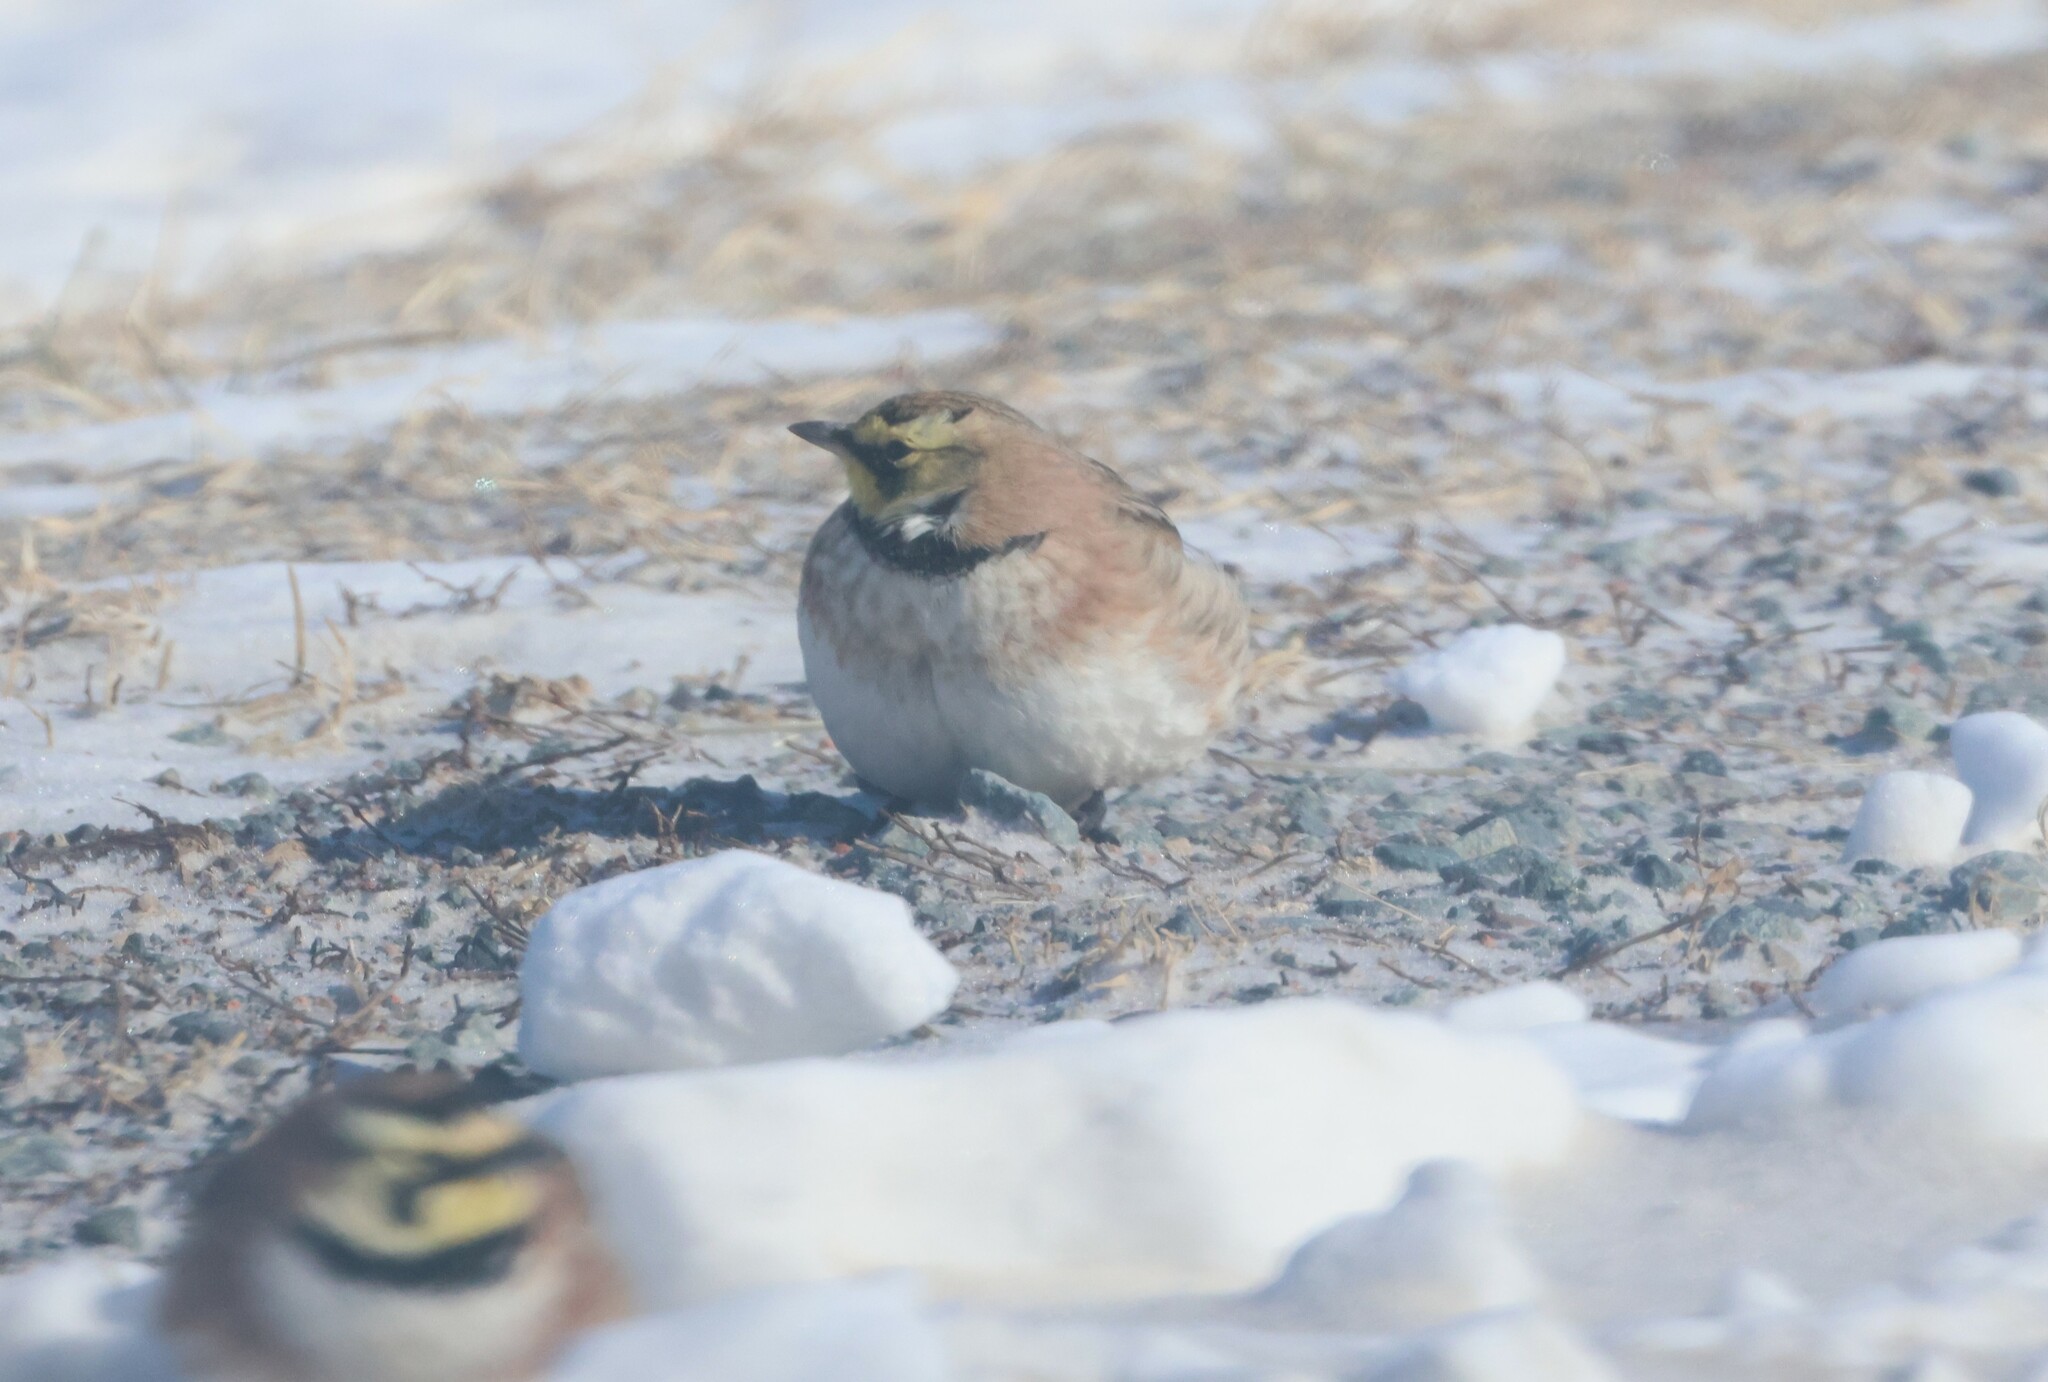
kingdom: Animalia
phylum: Chordata
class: Aves
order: Passeriformes
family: Alaudidae
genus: Eremophila
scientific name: Eremophila alpestris
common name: Horned lark
